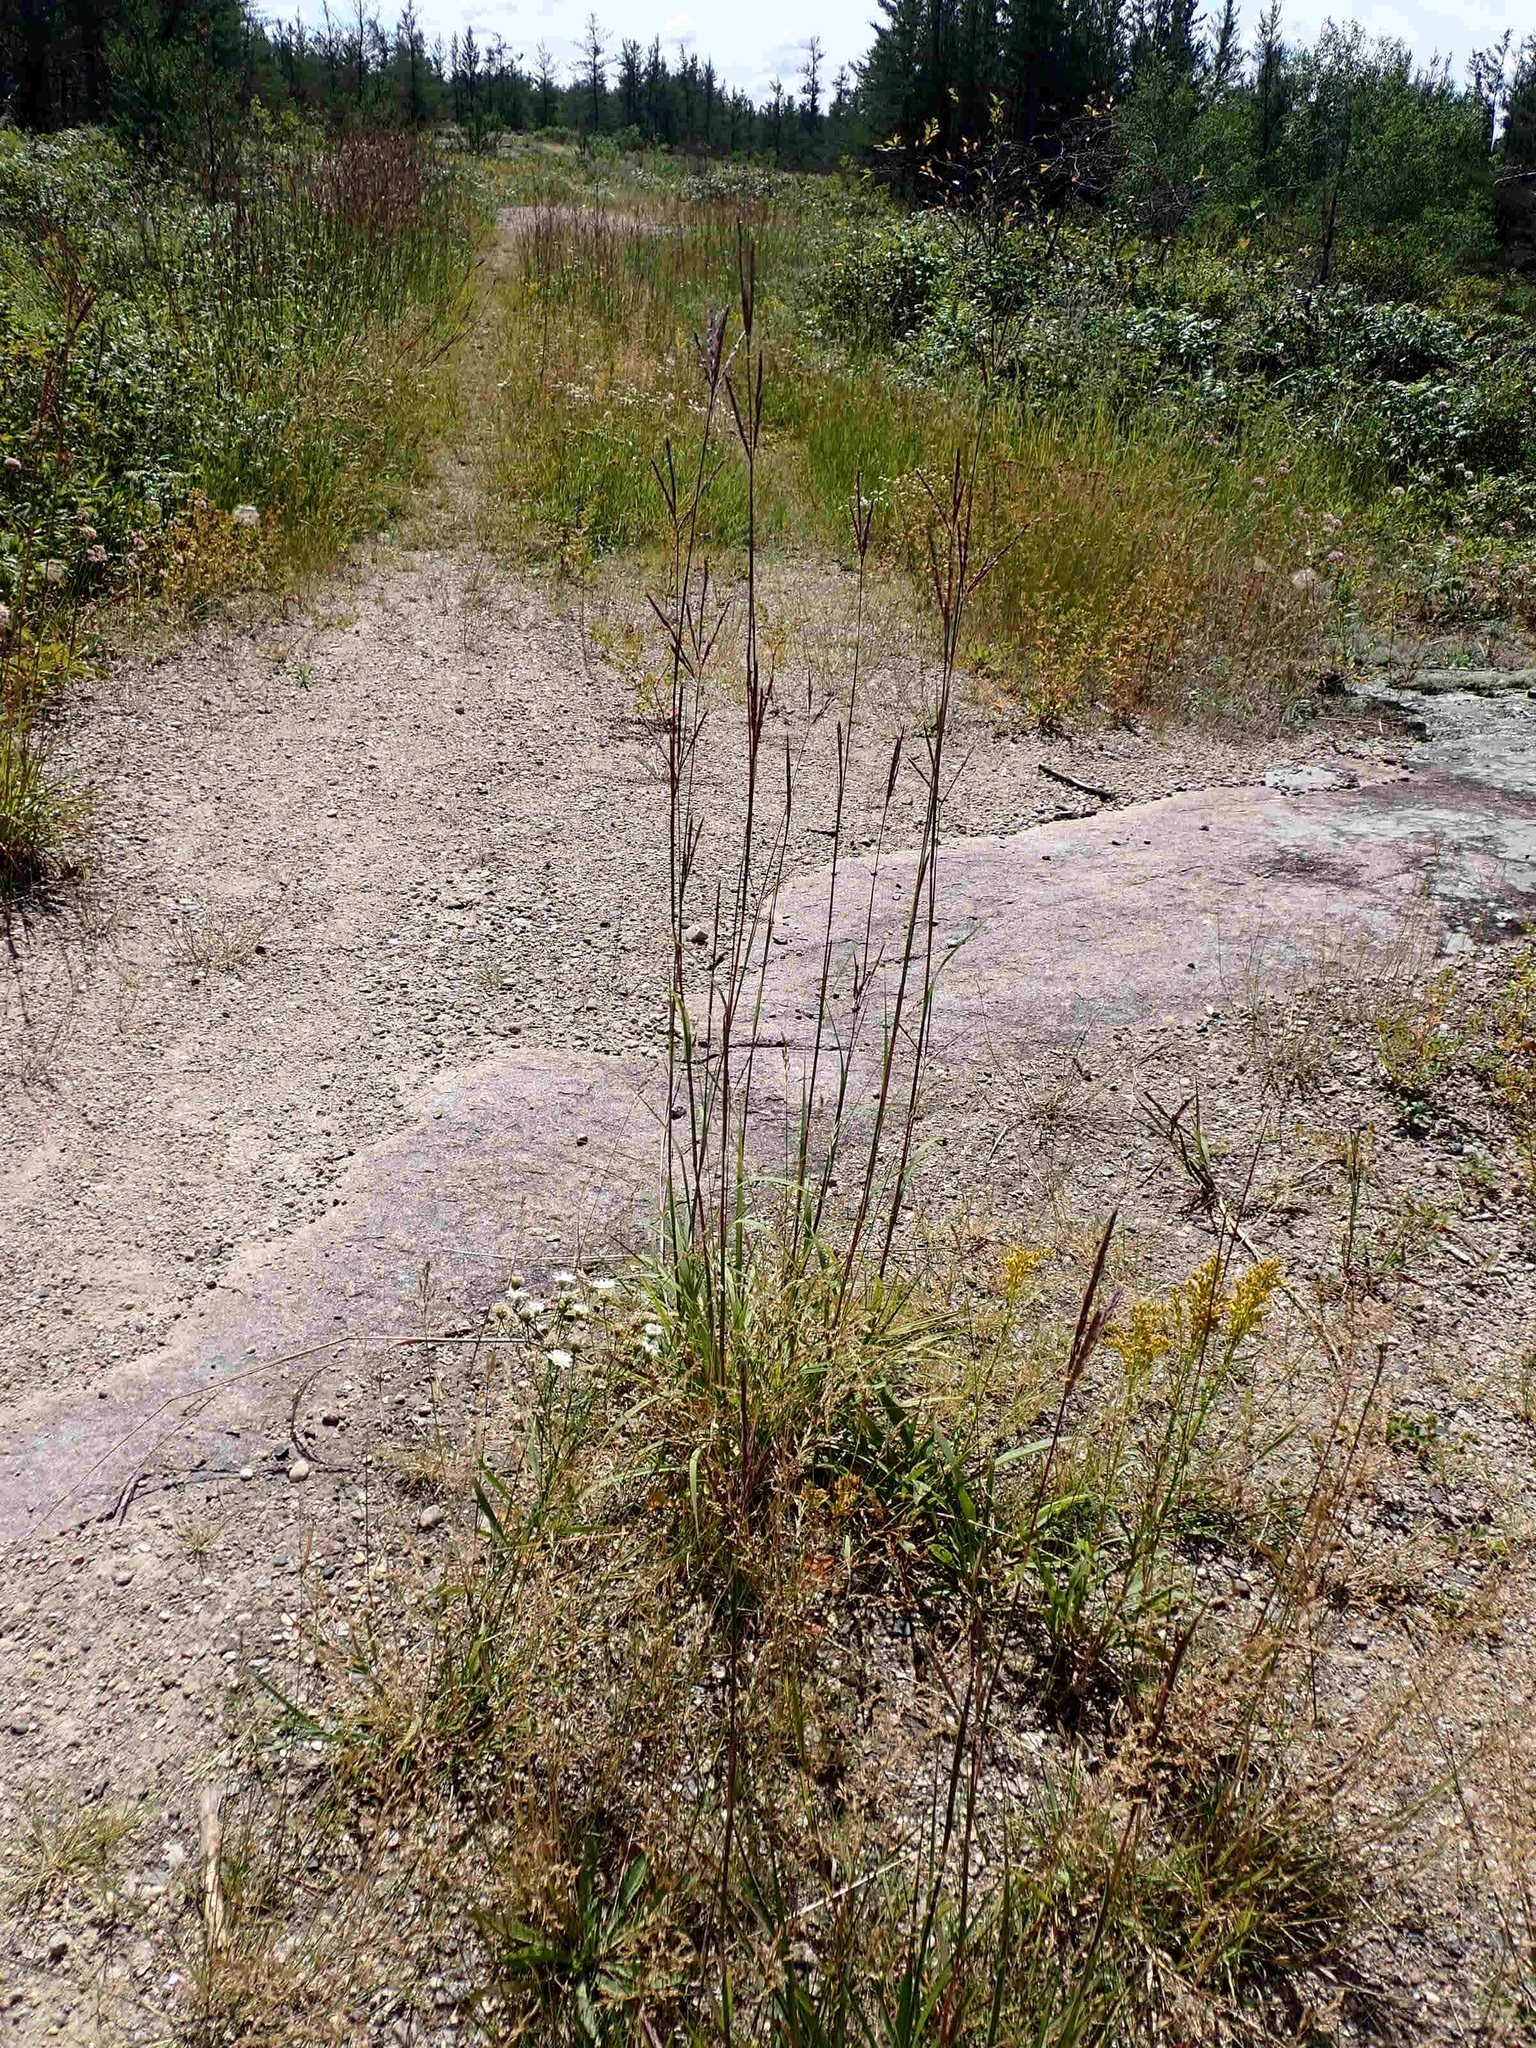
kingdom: Plantae
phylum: Tracheophyta
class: Liliopsida
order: Poales
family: Poaceae
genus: Andropogon
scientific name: Andropogon gerardi
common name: Big bluestem
